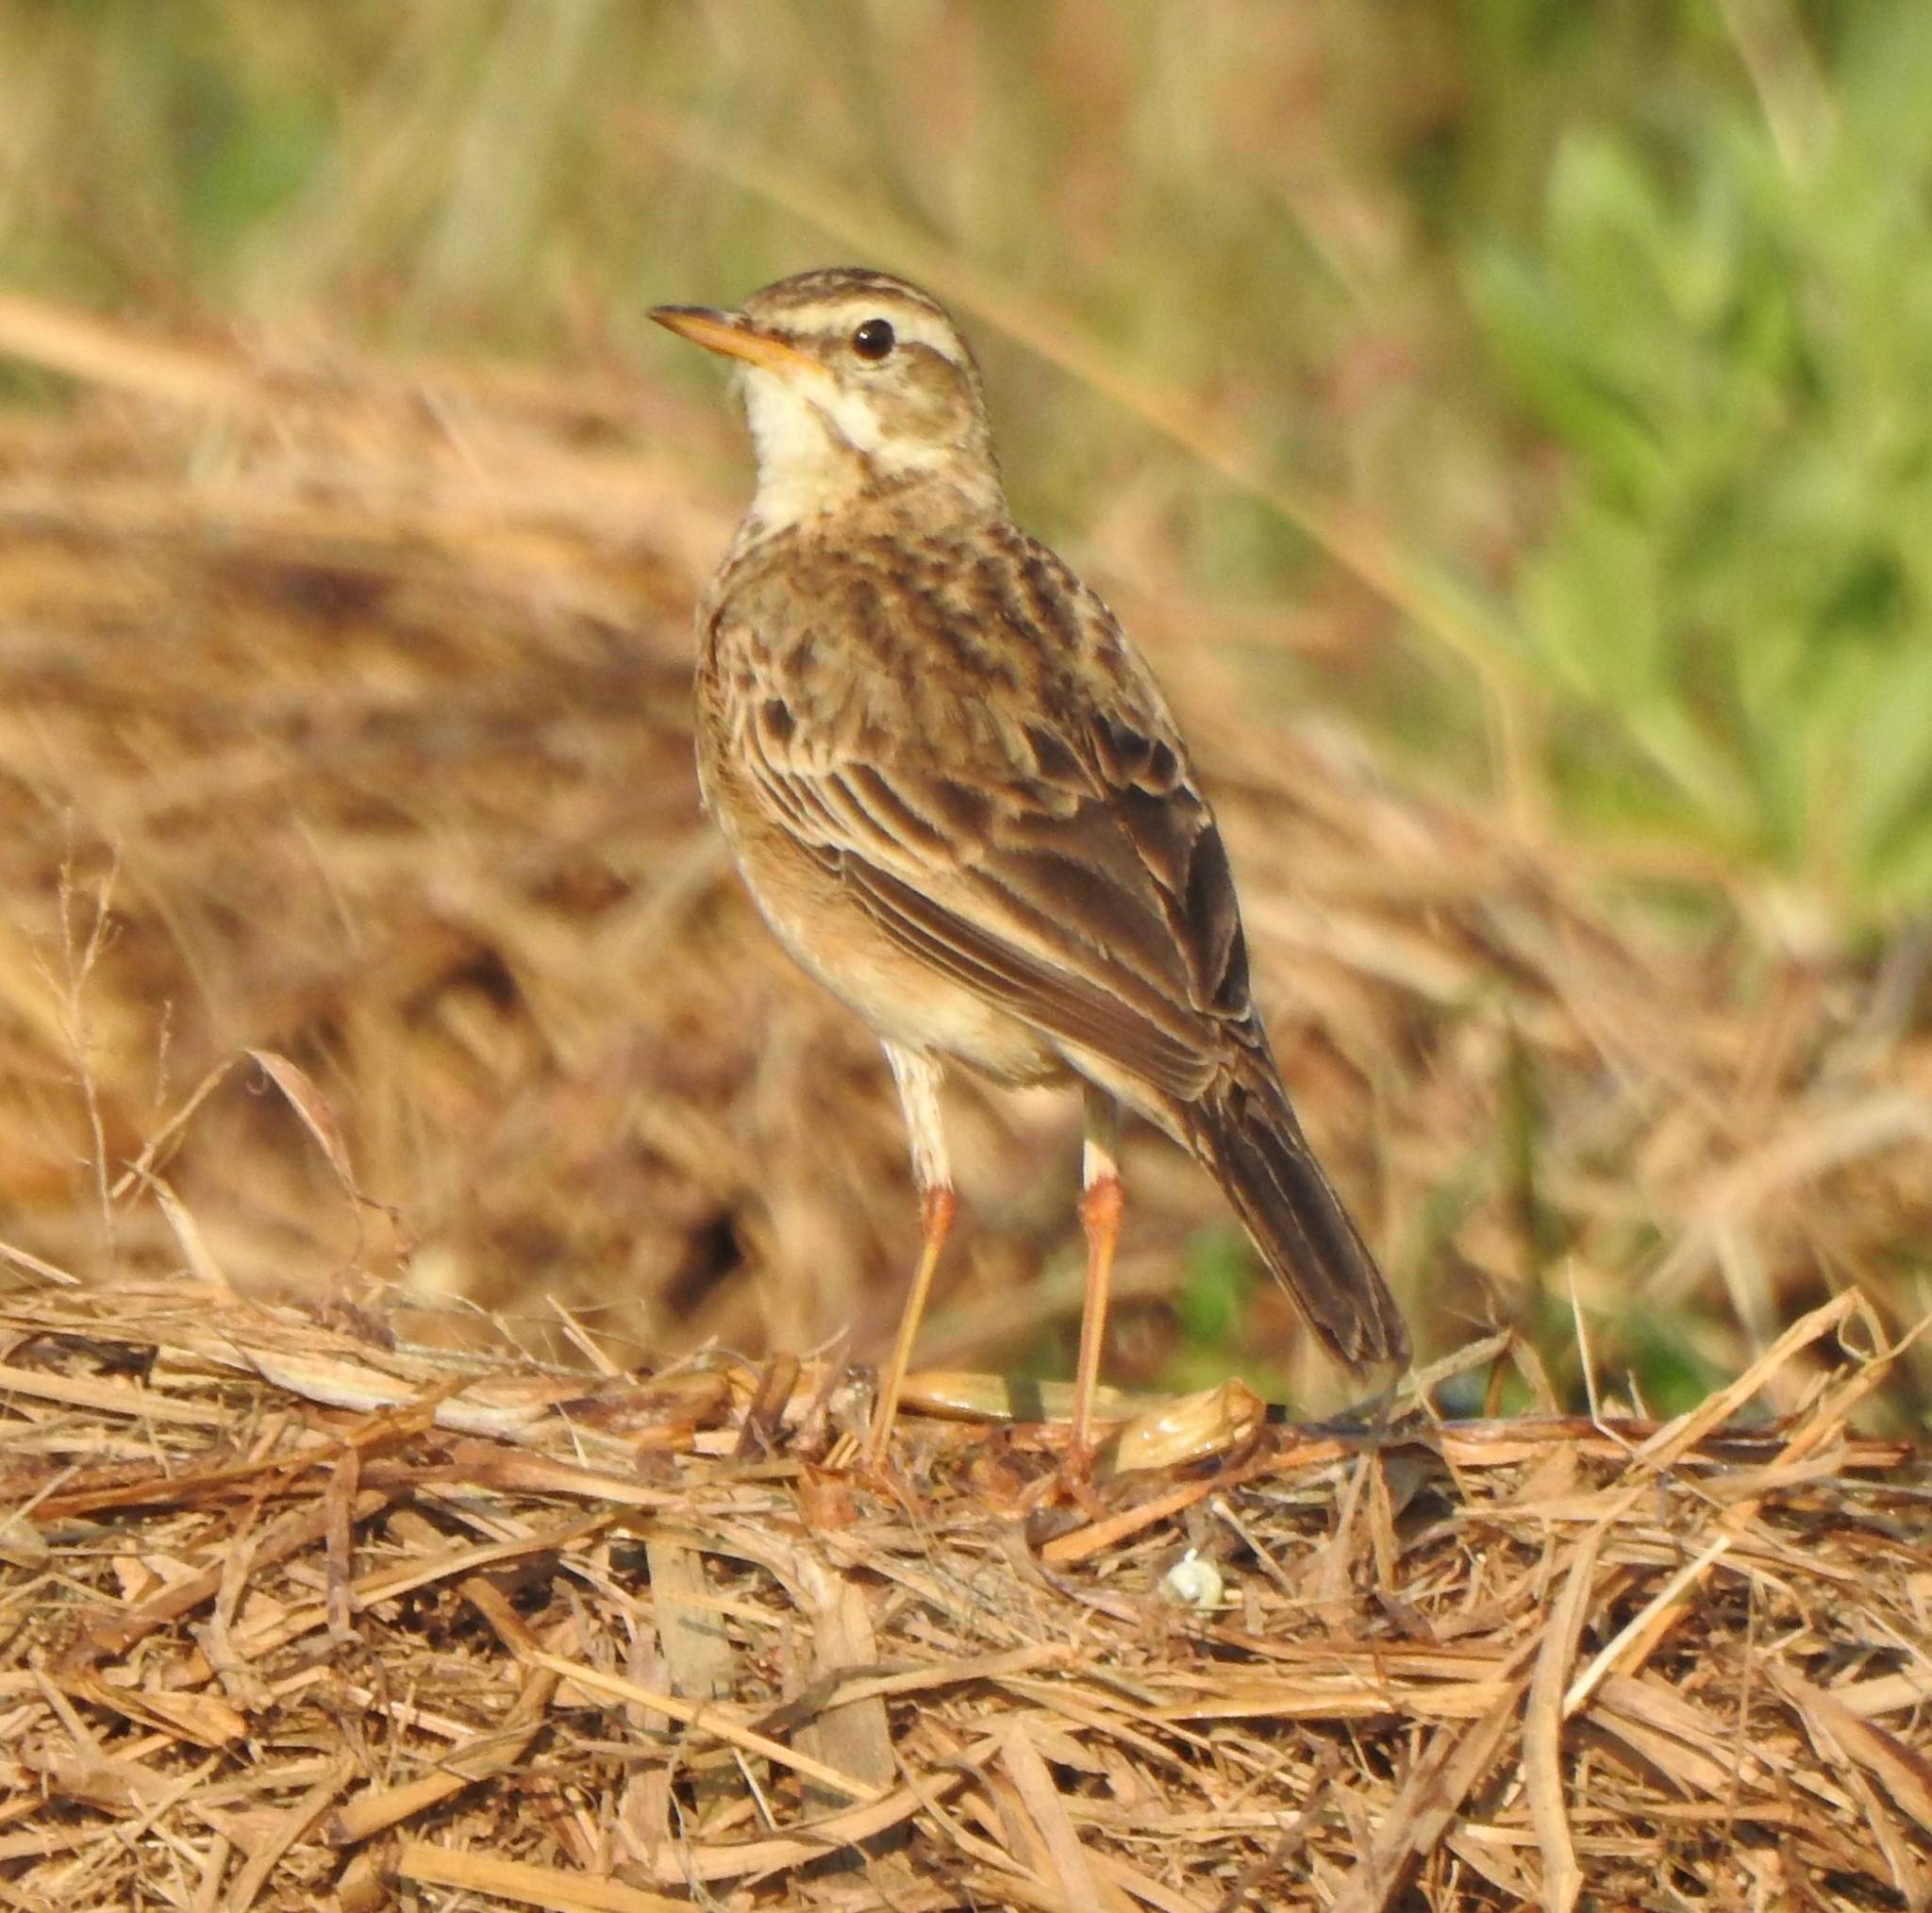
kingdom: Animalia
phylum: Chordata
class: Aves
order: Passeriformes
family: Motacillidae
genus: Anthus
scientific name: Anthus rufulus
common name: Paddyfield pipit
